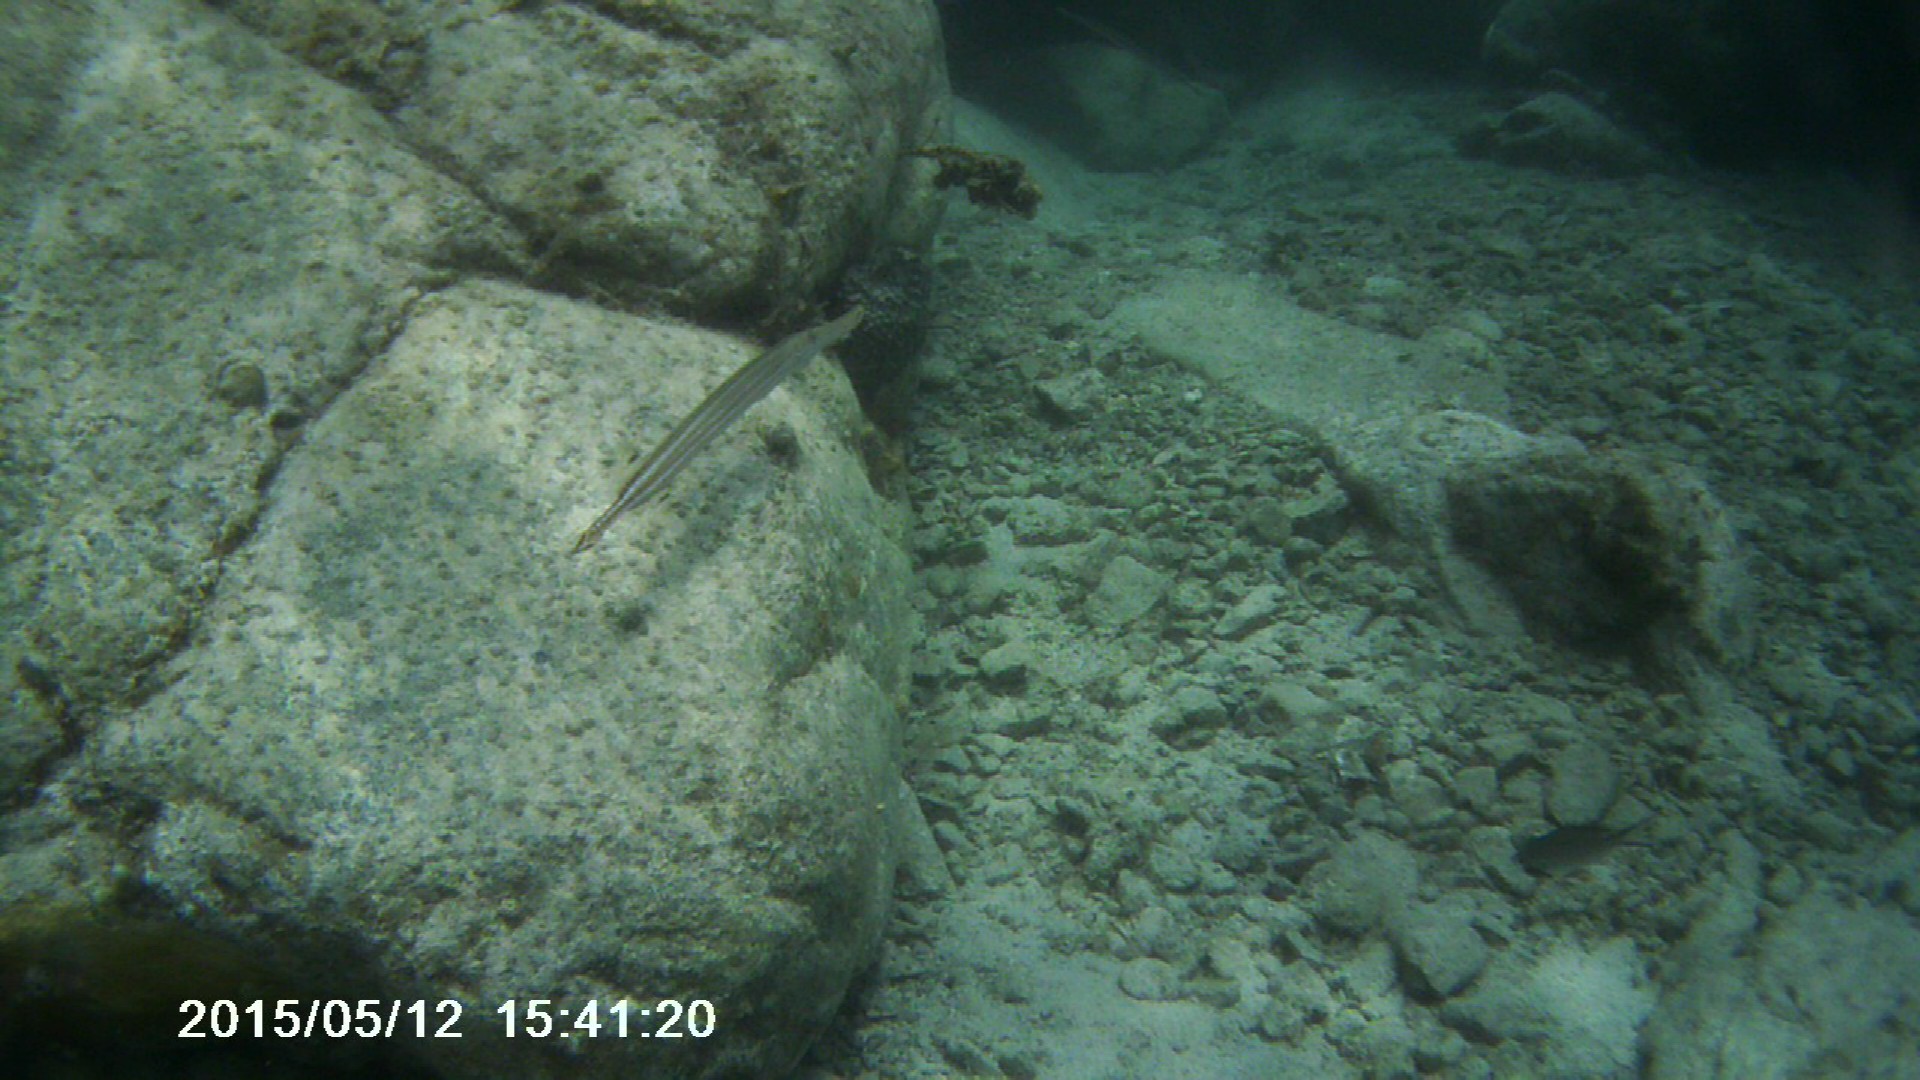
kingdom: Animalia
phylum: Chordata
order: Syngnathiformes
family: Aulostomidae
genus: Aulostomus
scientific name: Aulostomus maculatus
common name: West atlantic trumpetfish
